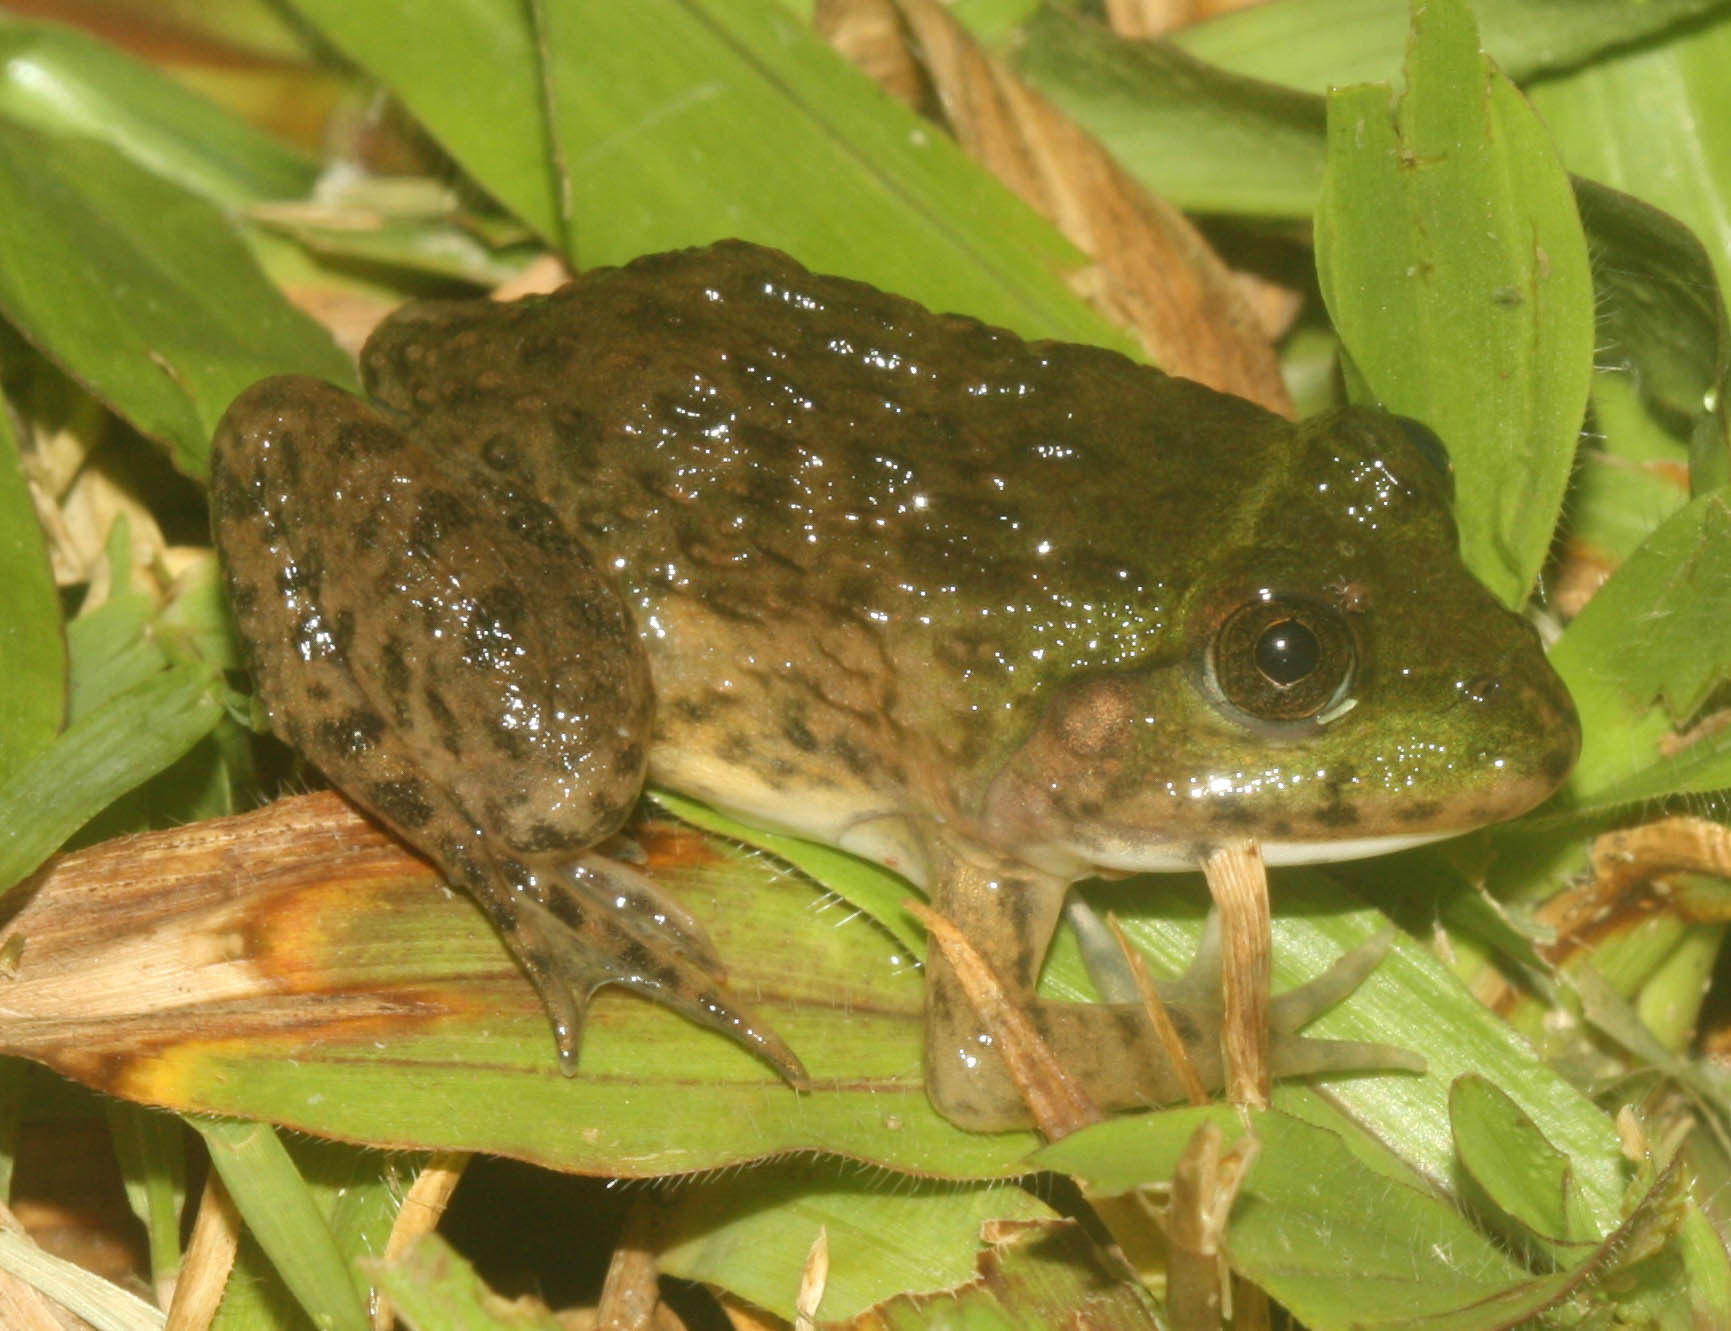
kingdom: Animalia
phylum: Chordata
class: Amphibia
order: Anura
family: Dicroglossidae
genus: Hoplobatrachus
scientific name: Hoplobatrachus rugulosus
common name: Chinese edible frog
